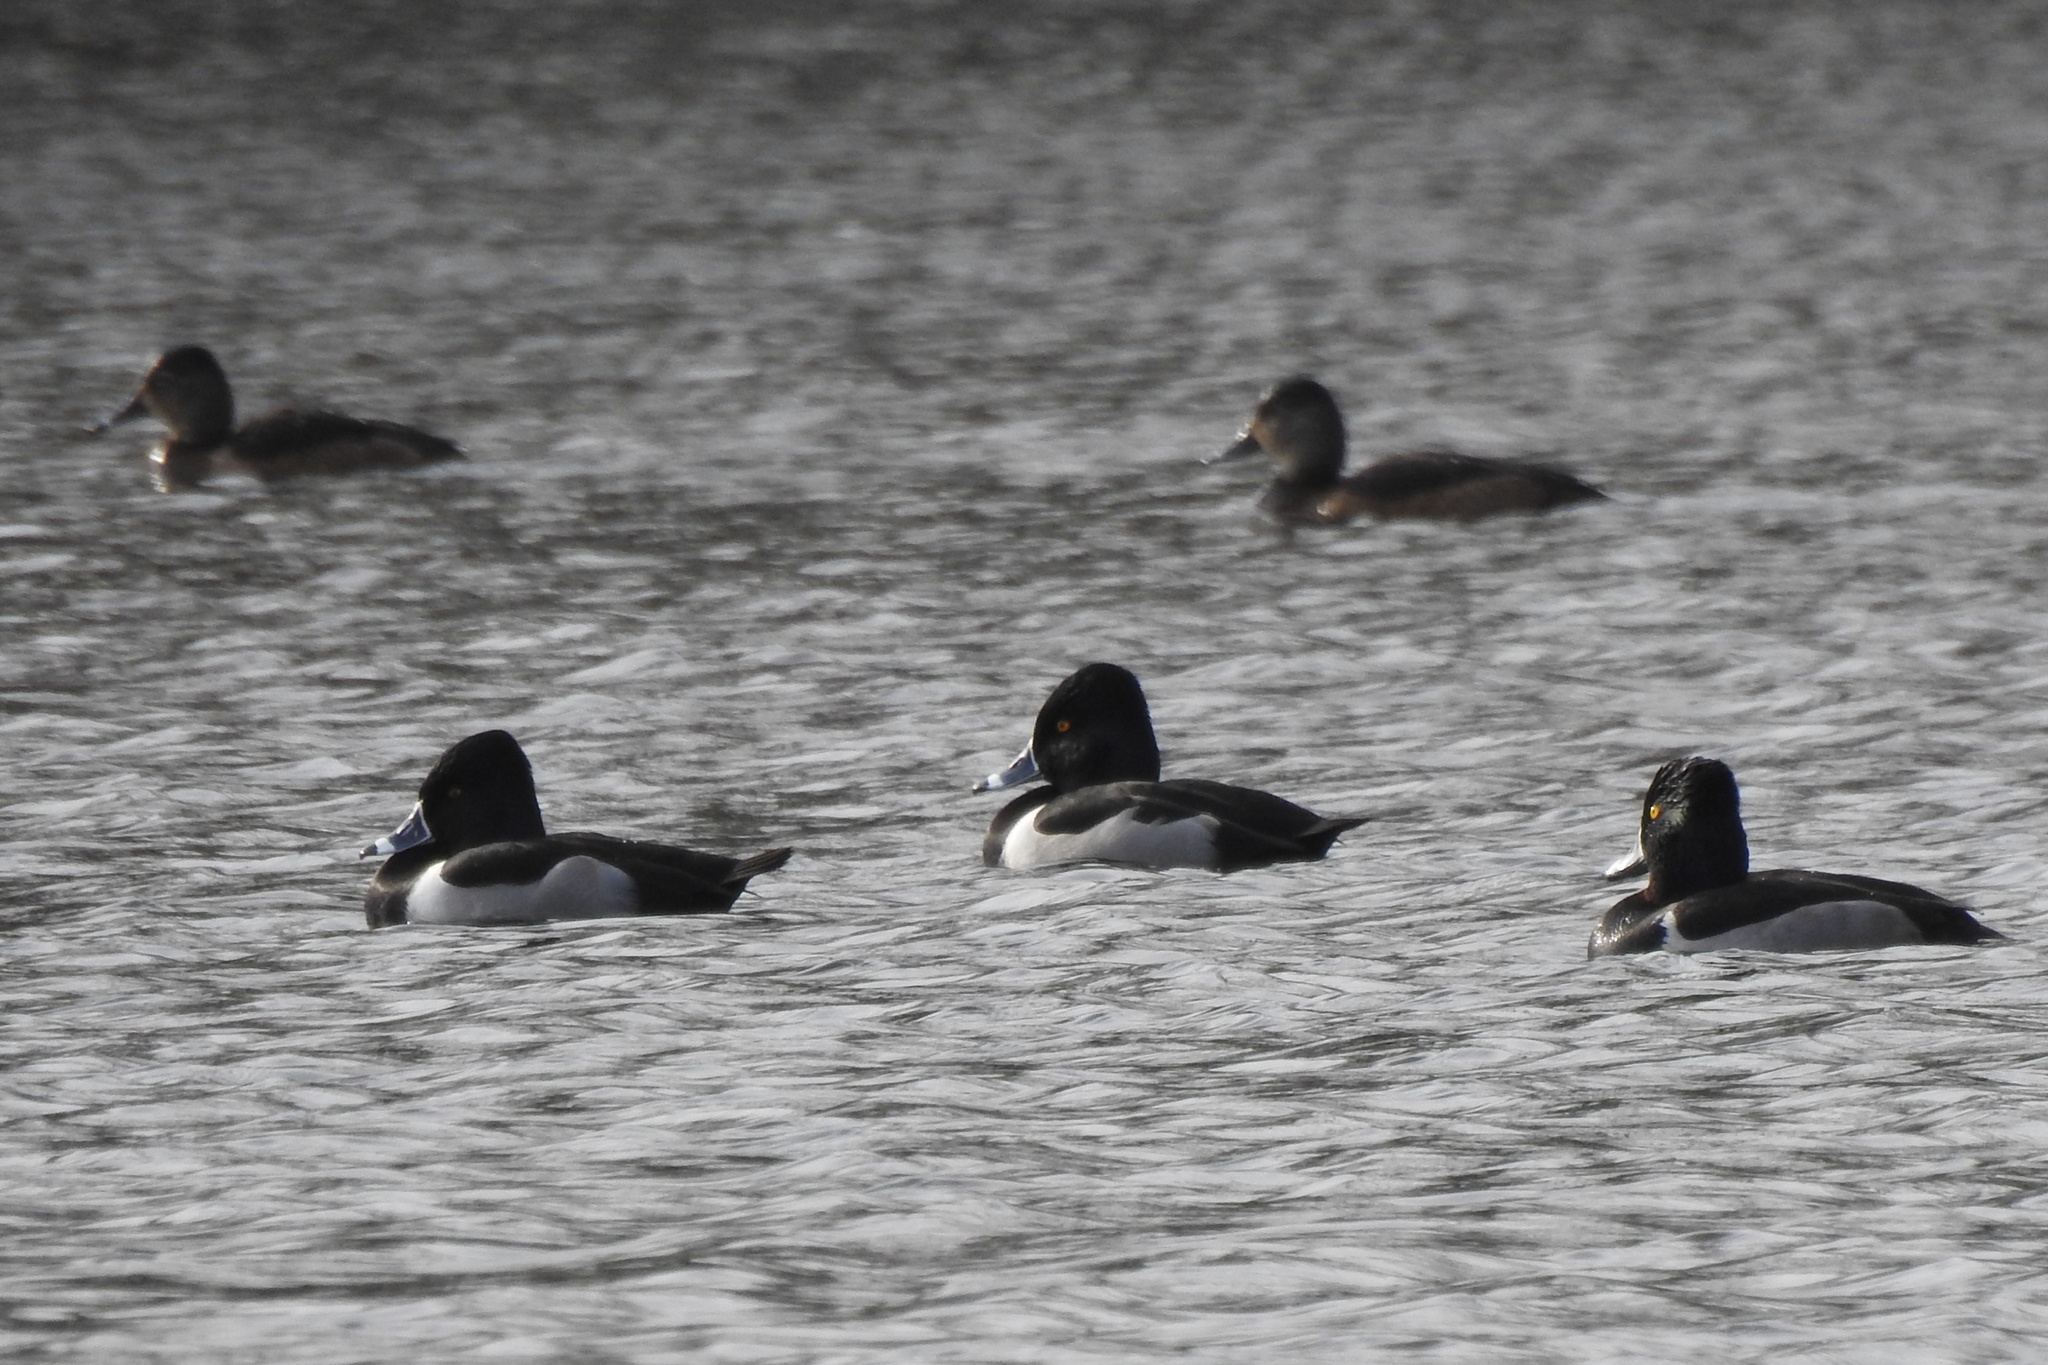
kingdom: Animalia
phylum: Chordata
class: Aves
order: Anseriformes
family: Anatidae
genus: Aythya
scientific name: Aythya collaris
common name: Ring-necked duck
